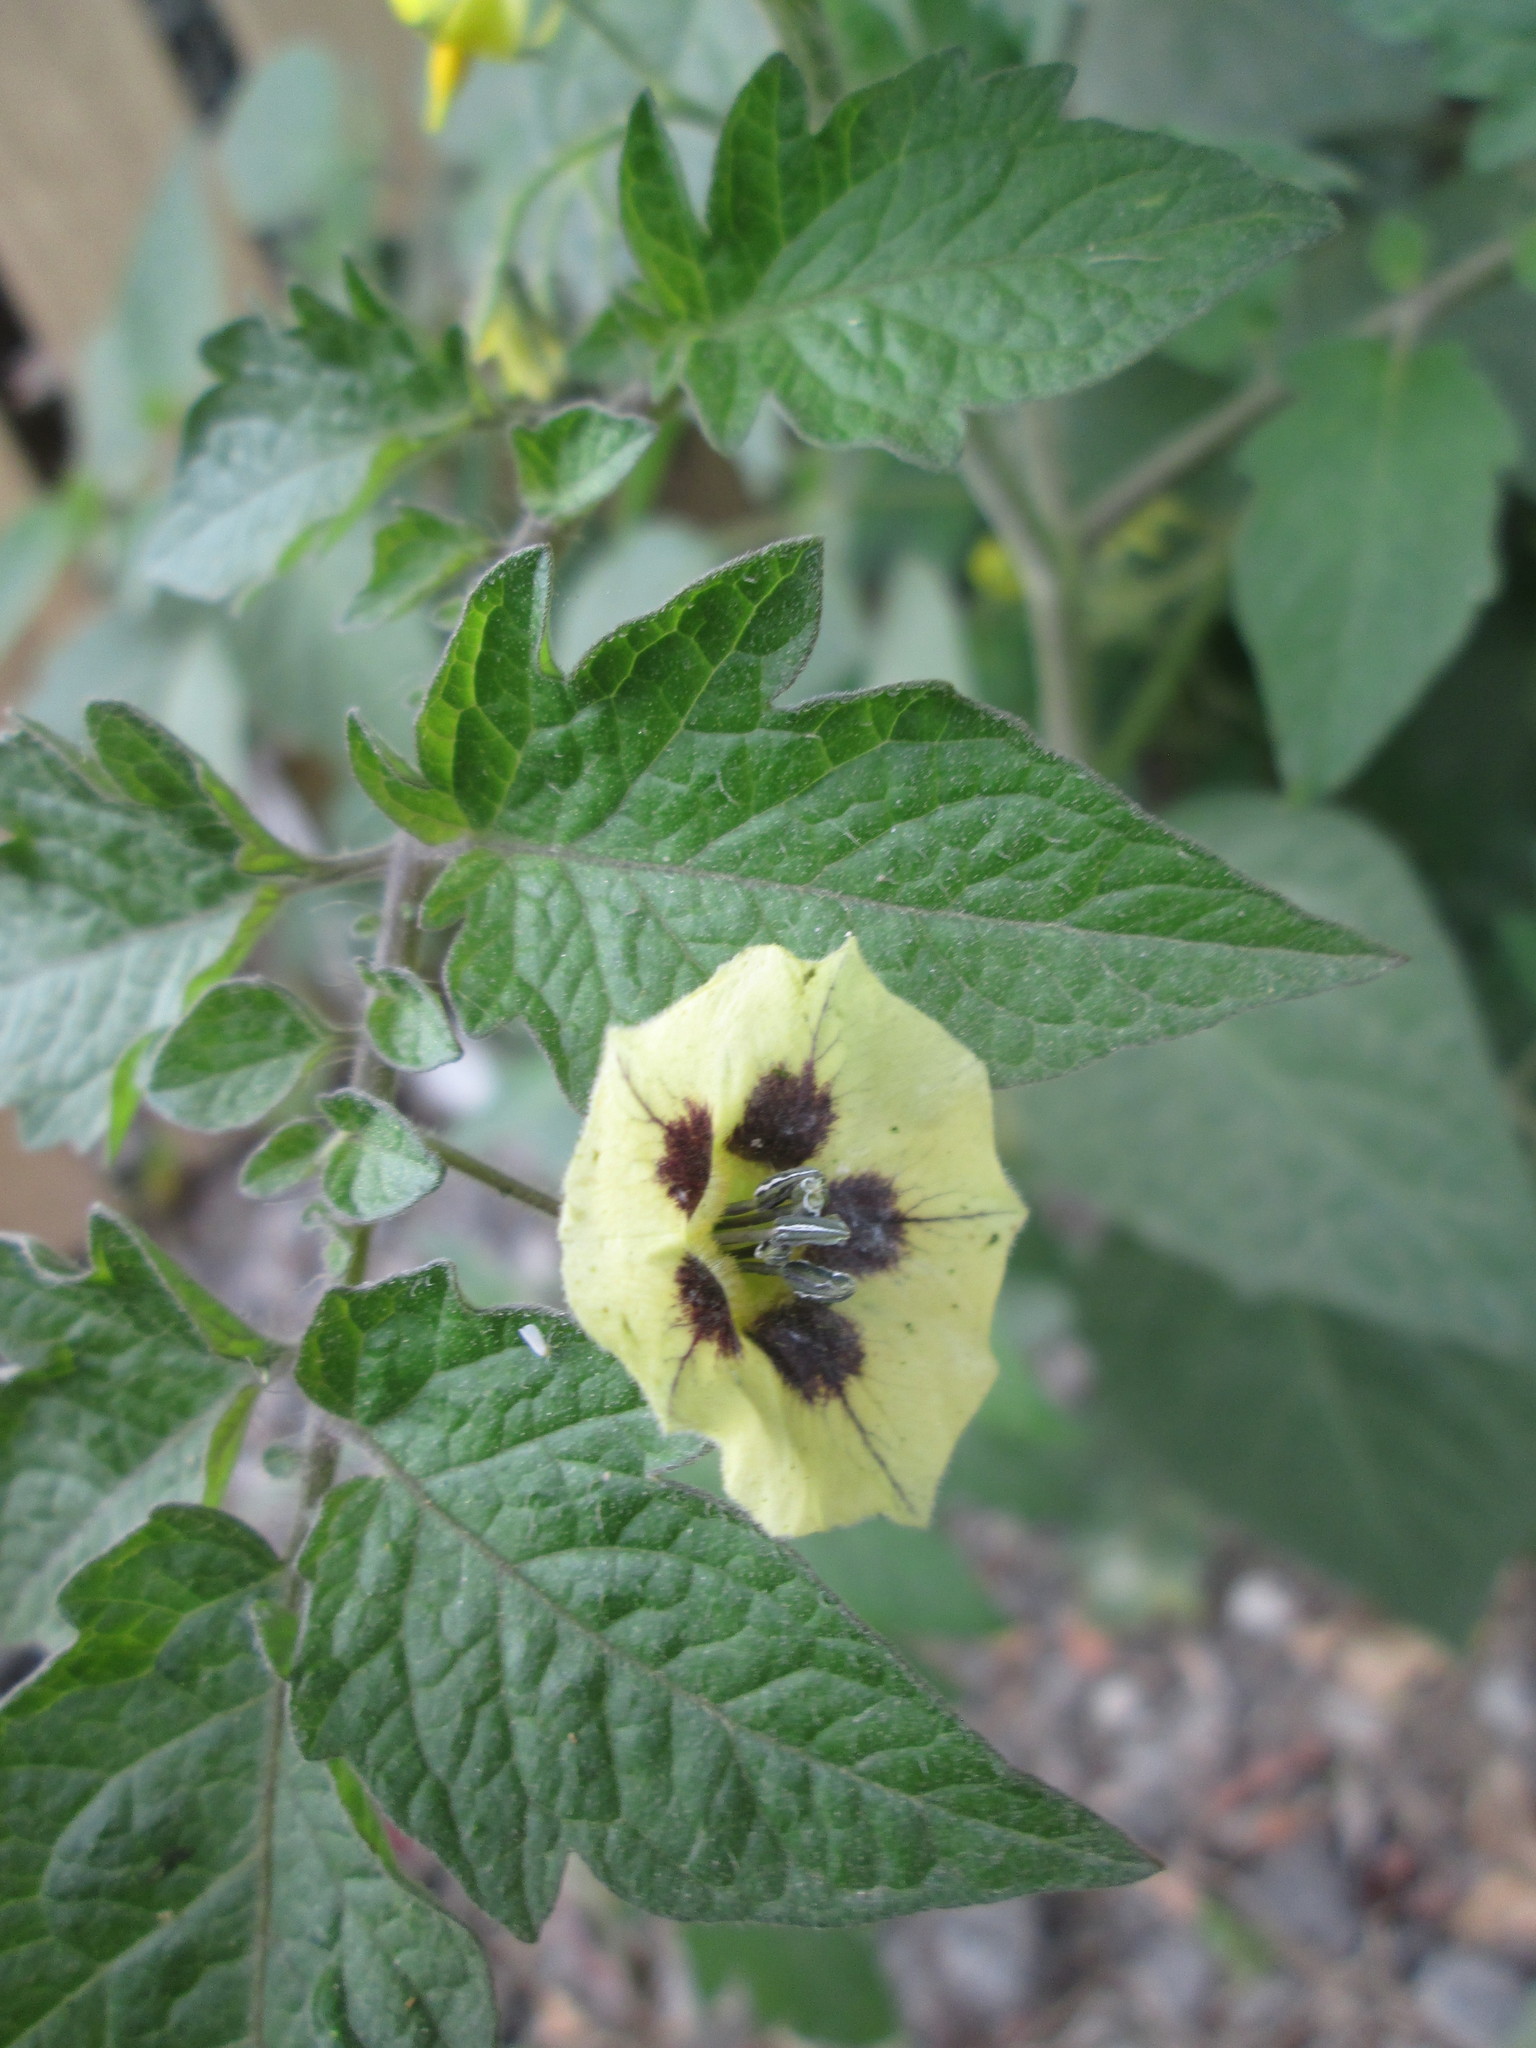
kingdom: Plantae
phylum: Tracheophyta
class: Magnoliopsida
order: Solanales
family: Solanaceae
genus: Physalis
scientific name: Physalis peruviana
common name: Cape-gooseberry
